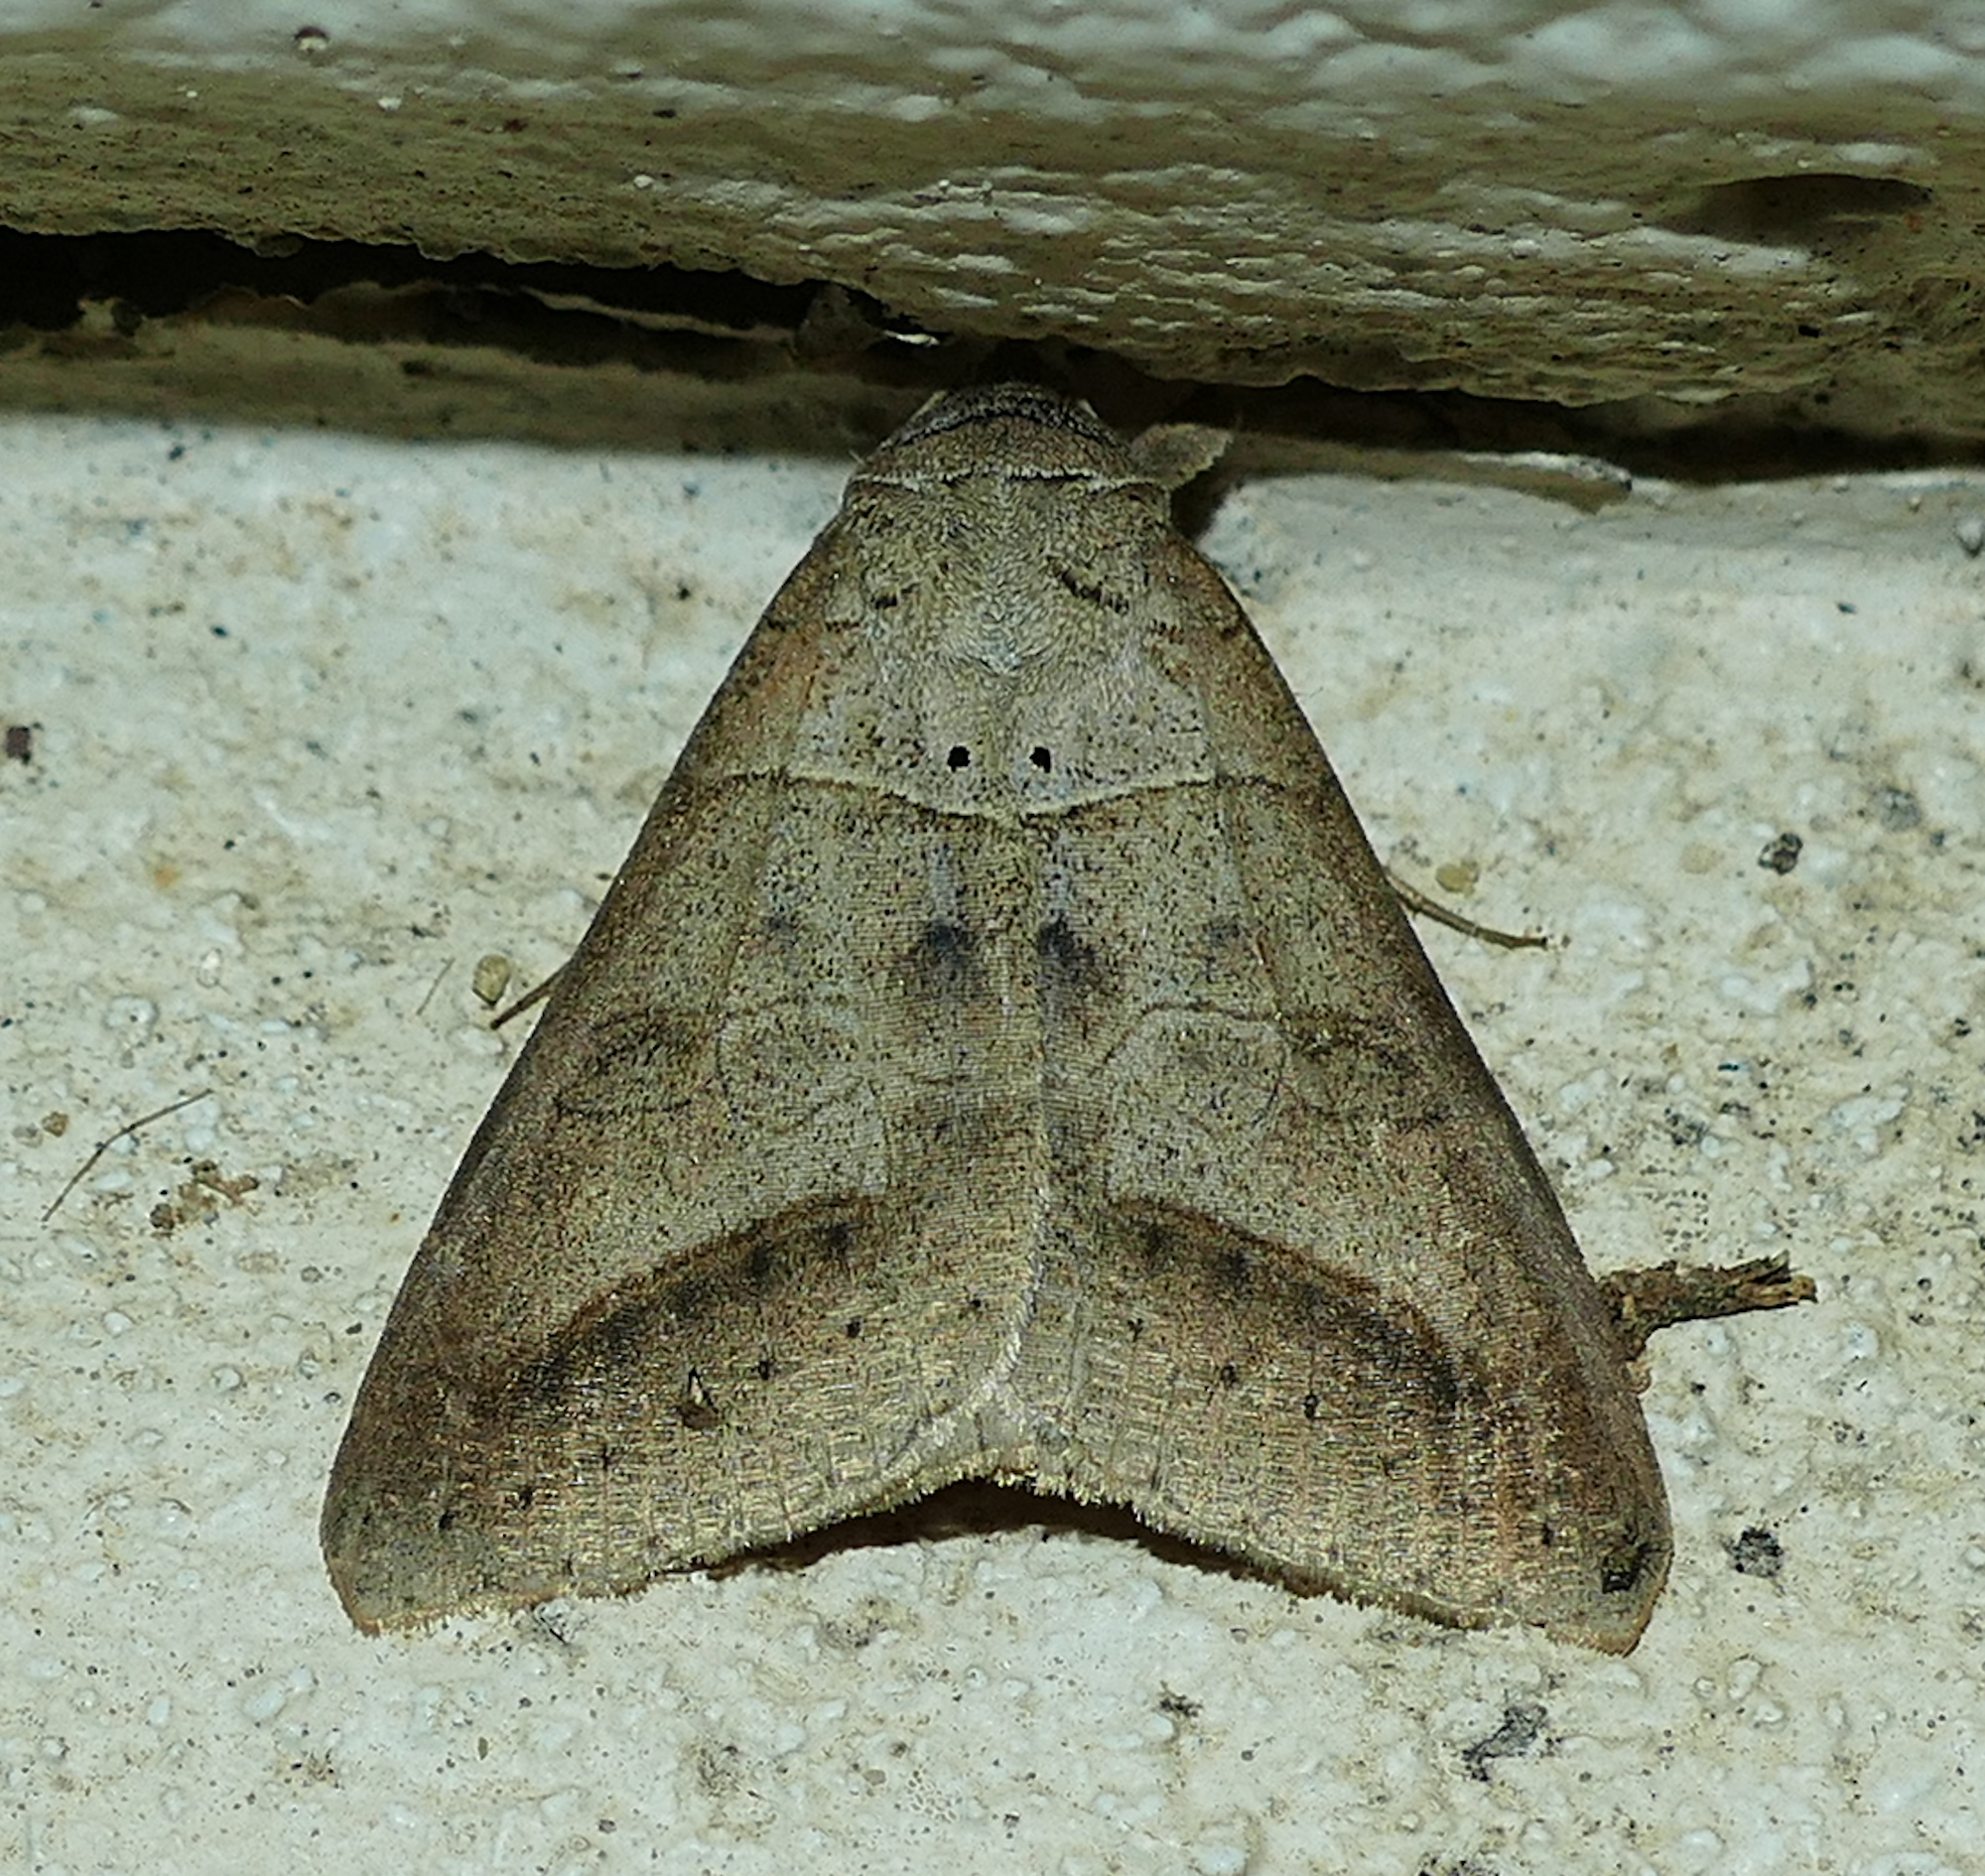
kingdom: Animalia
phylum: Arthropoda
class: Insecta
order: Lepidoptera
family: Erebidae
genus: Mocis
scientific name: Mocis marcida
